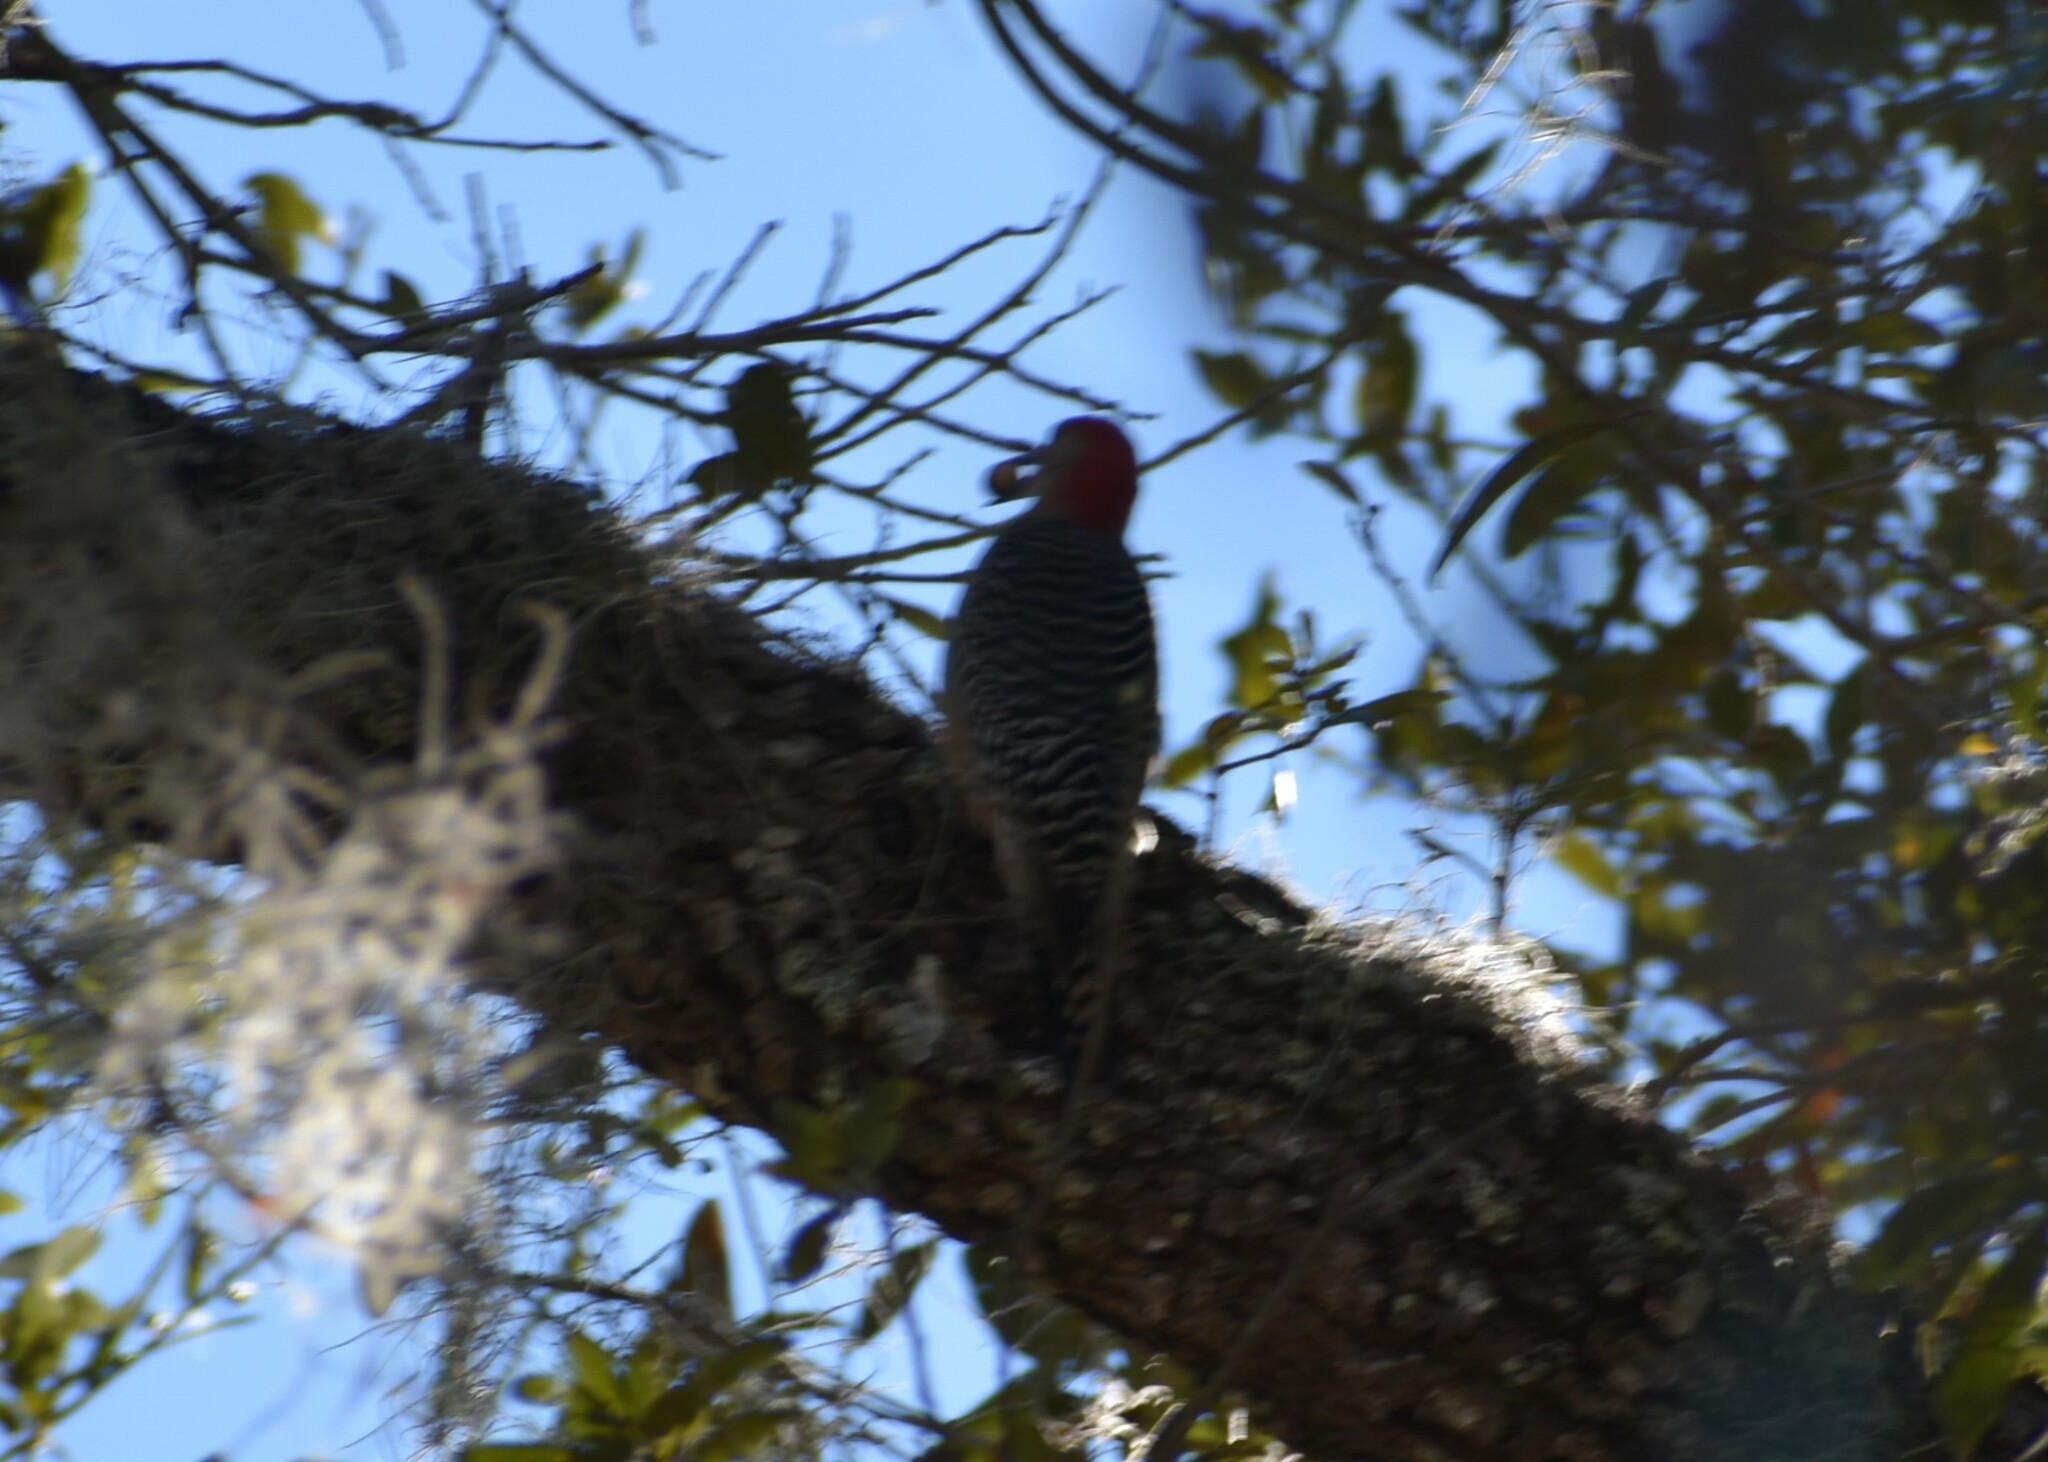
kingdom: Animalia
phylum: Chordata
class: Aves
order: Piciformes
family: Picidae
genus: Melanerpes
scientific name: Melanerpes carolinus
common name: Red-bellied woodpecker
